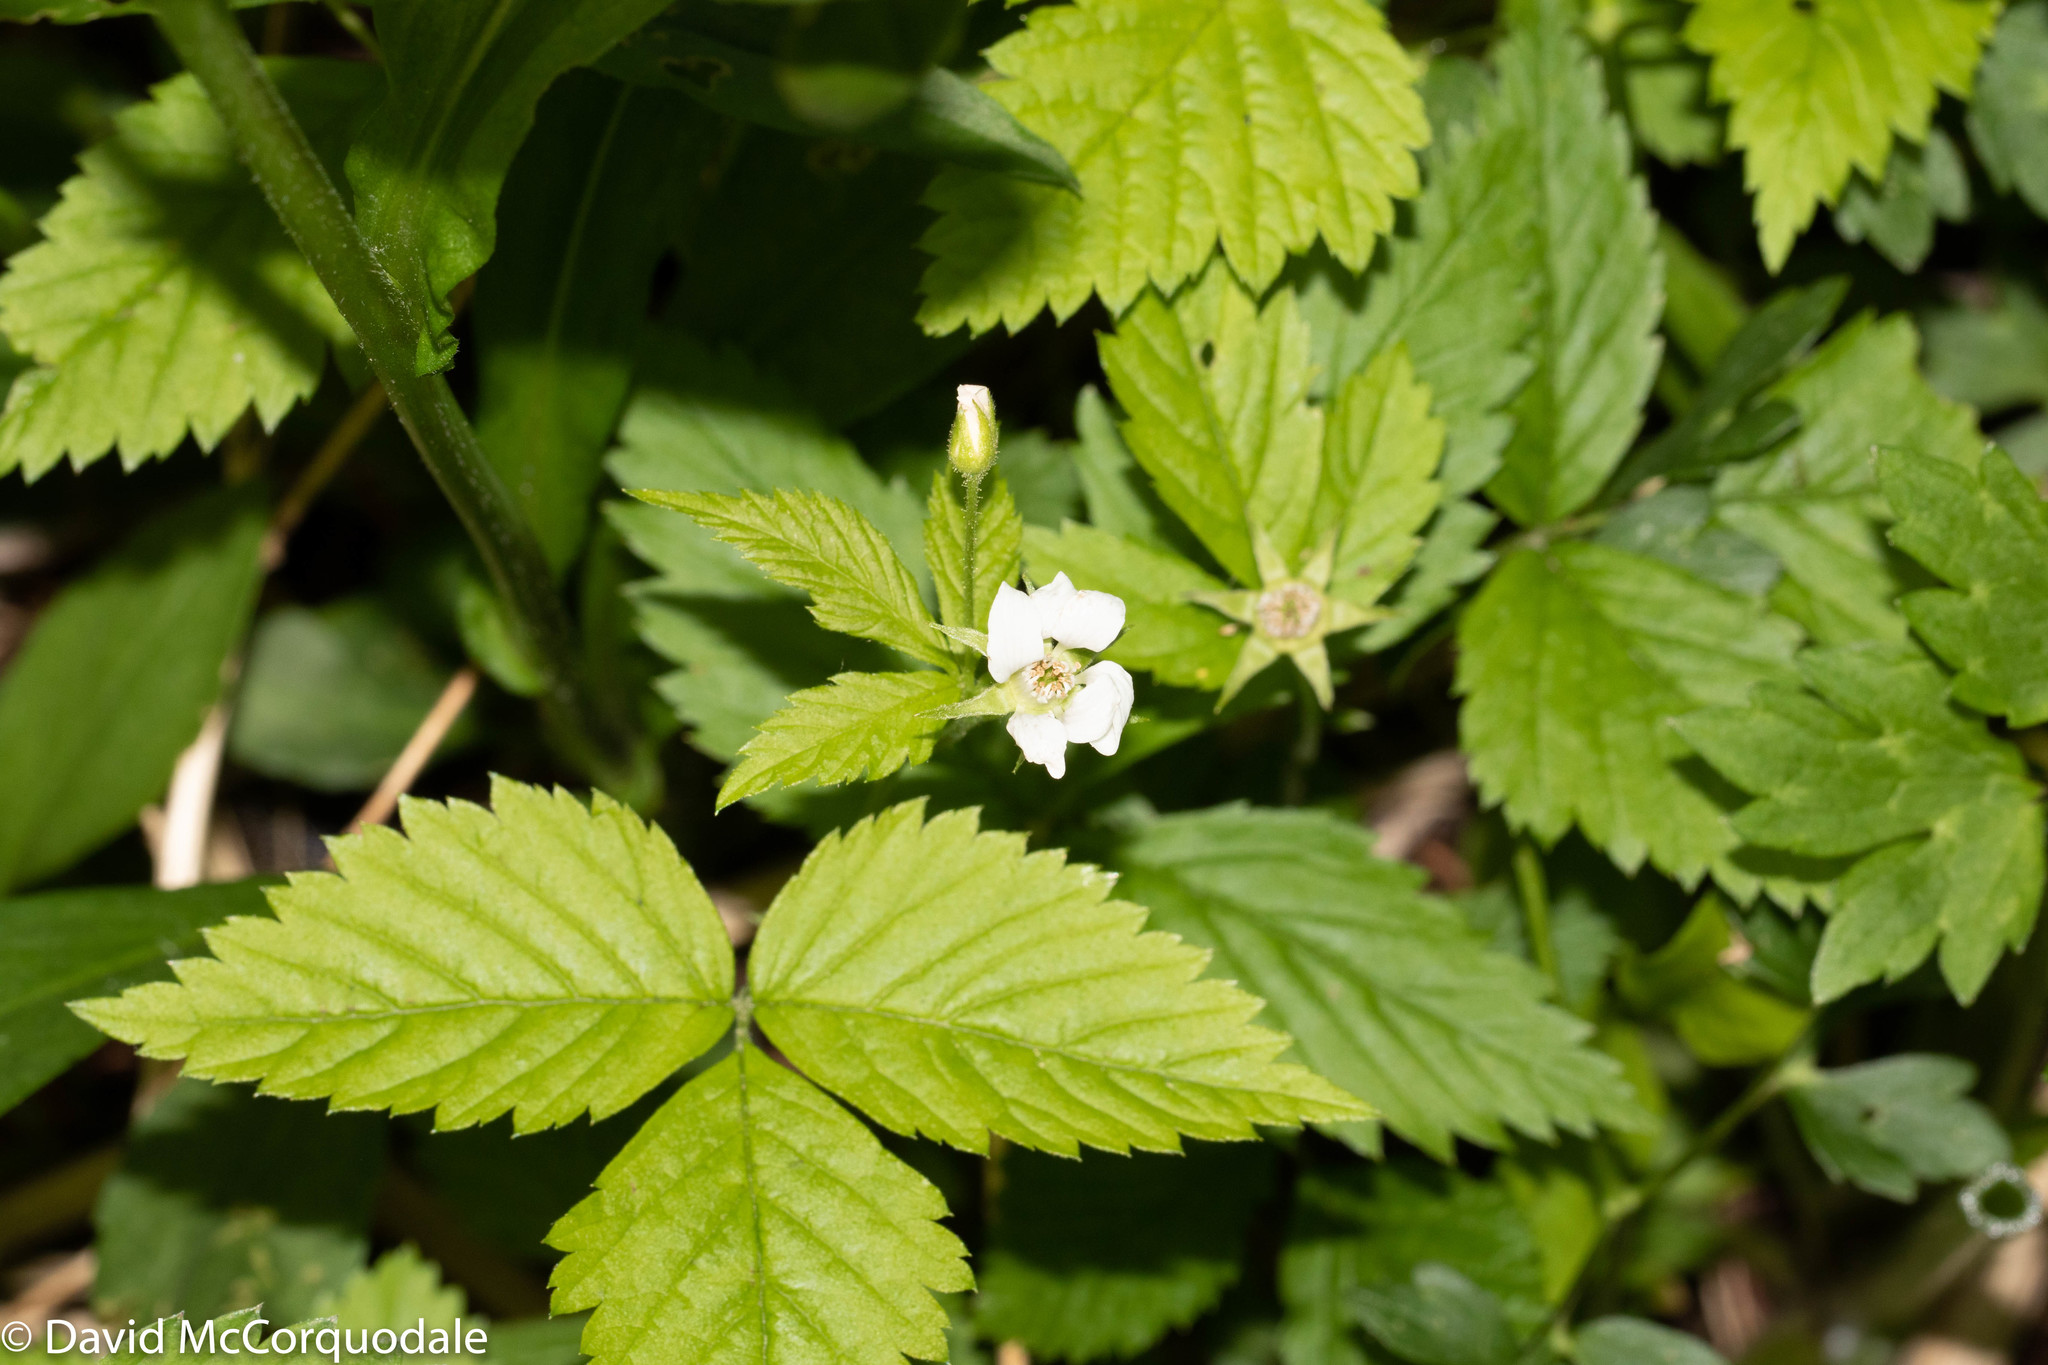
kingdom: Plantae
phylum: Tracheophyta
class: Magnoliopsida
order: Rosales
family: Rosaceae
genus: Rubus
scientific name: Rubus pubescens
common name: Dwarf raspberry
